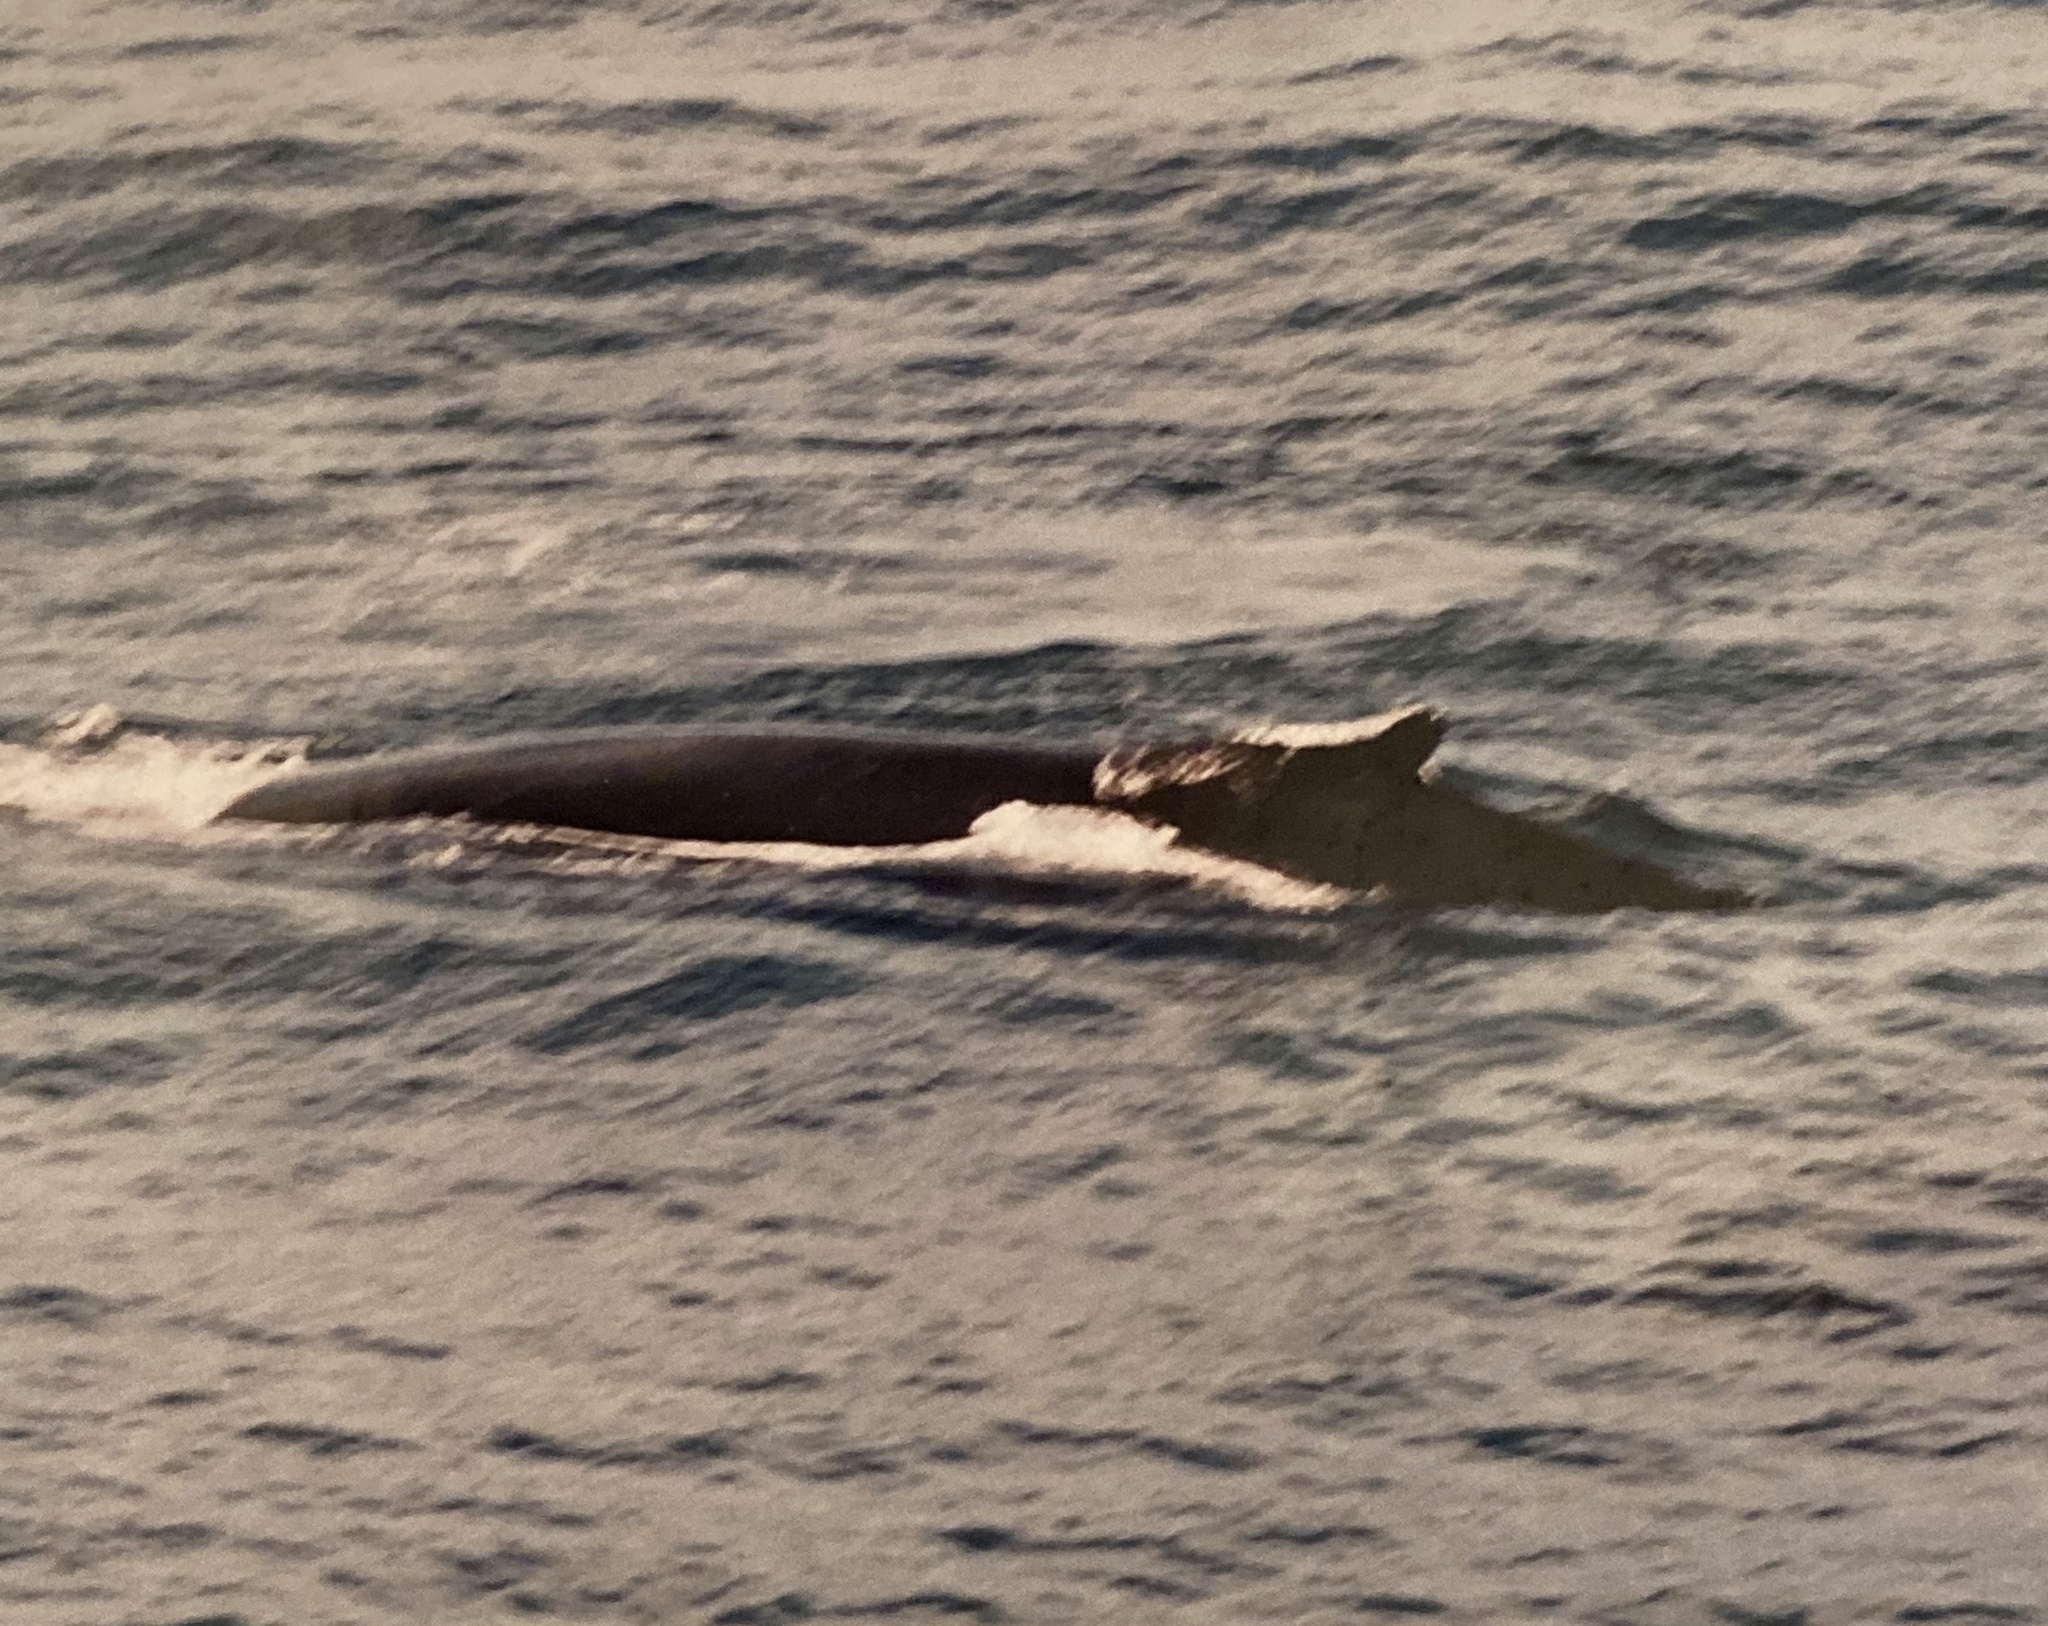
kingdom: Animalia
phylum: Chordata
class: Mammalia
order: Cetacea
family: Balaenopteridae
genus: Megaptera
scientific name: Megaptera novaeangliae
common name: Humpback whale
